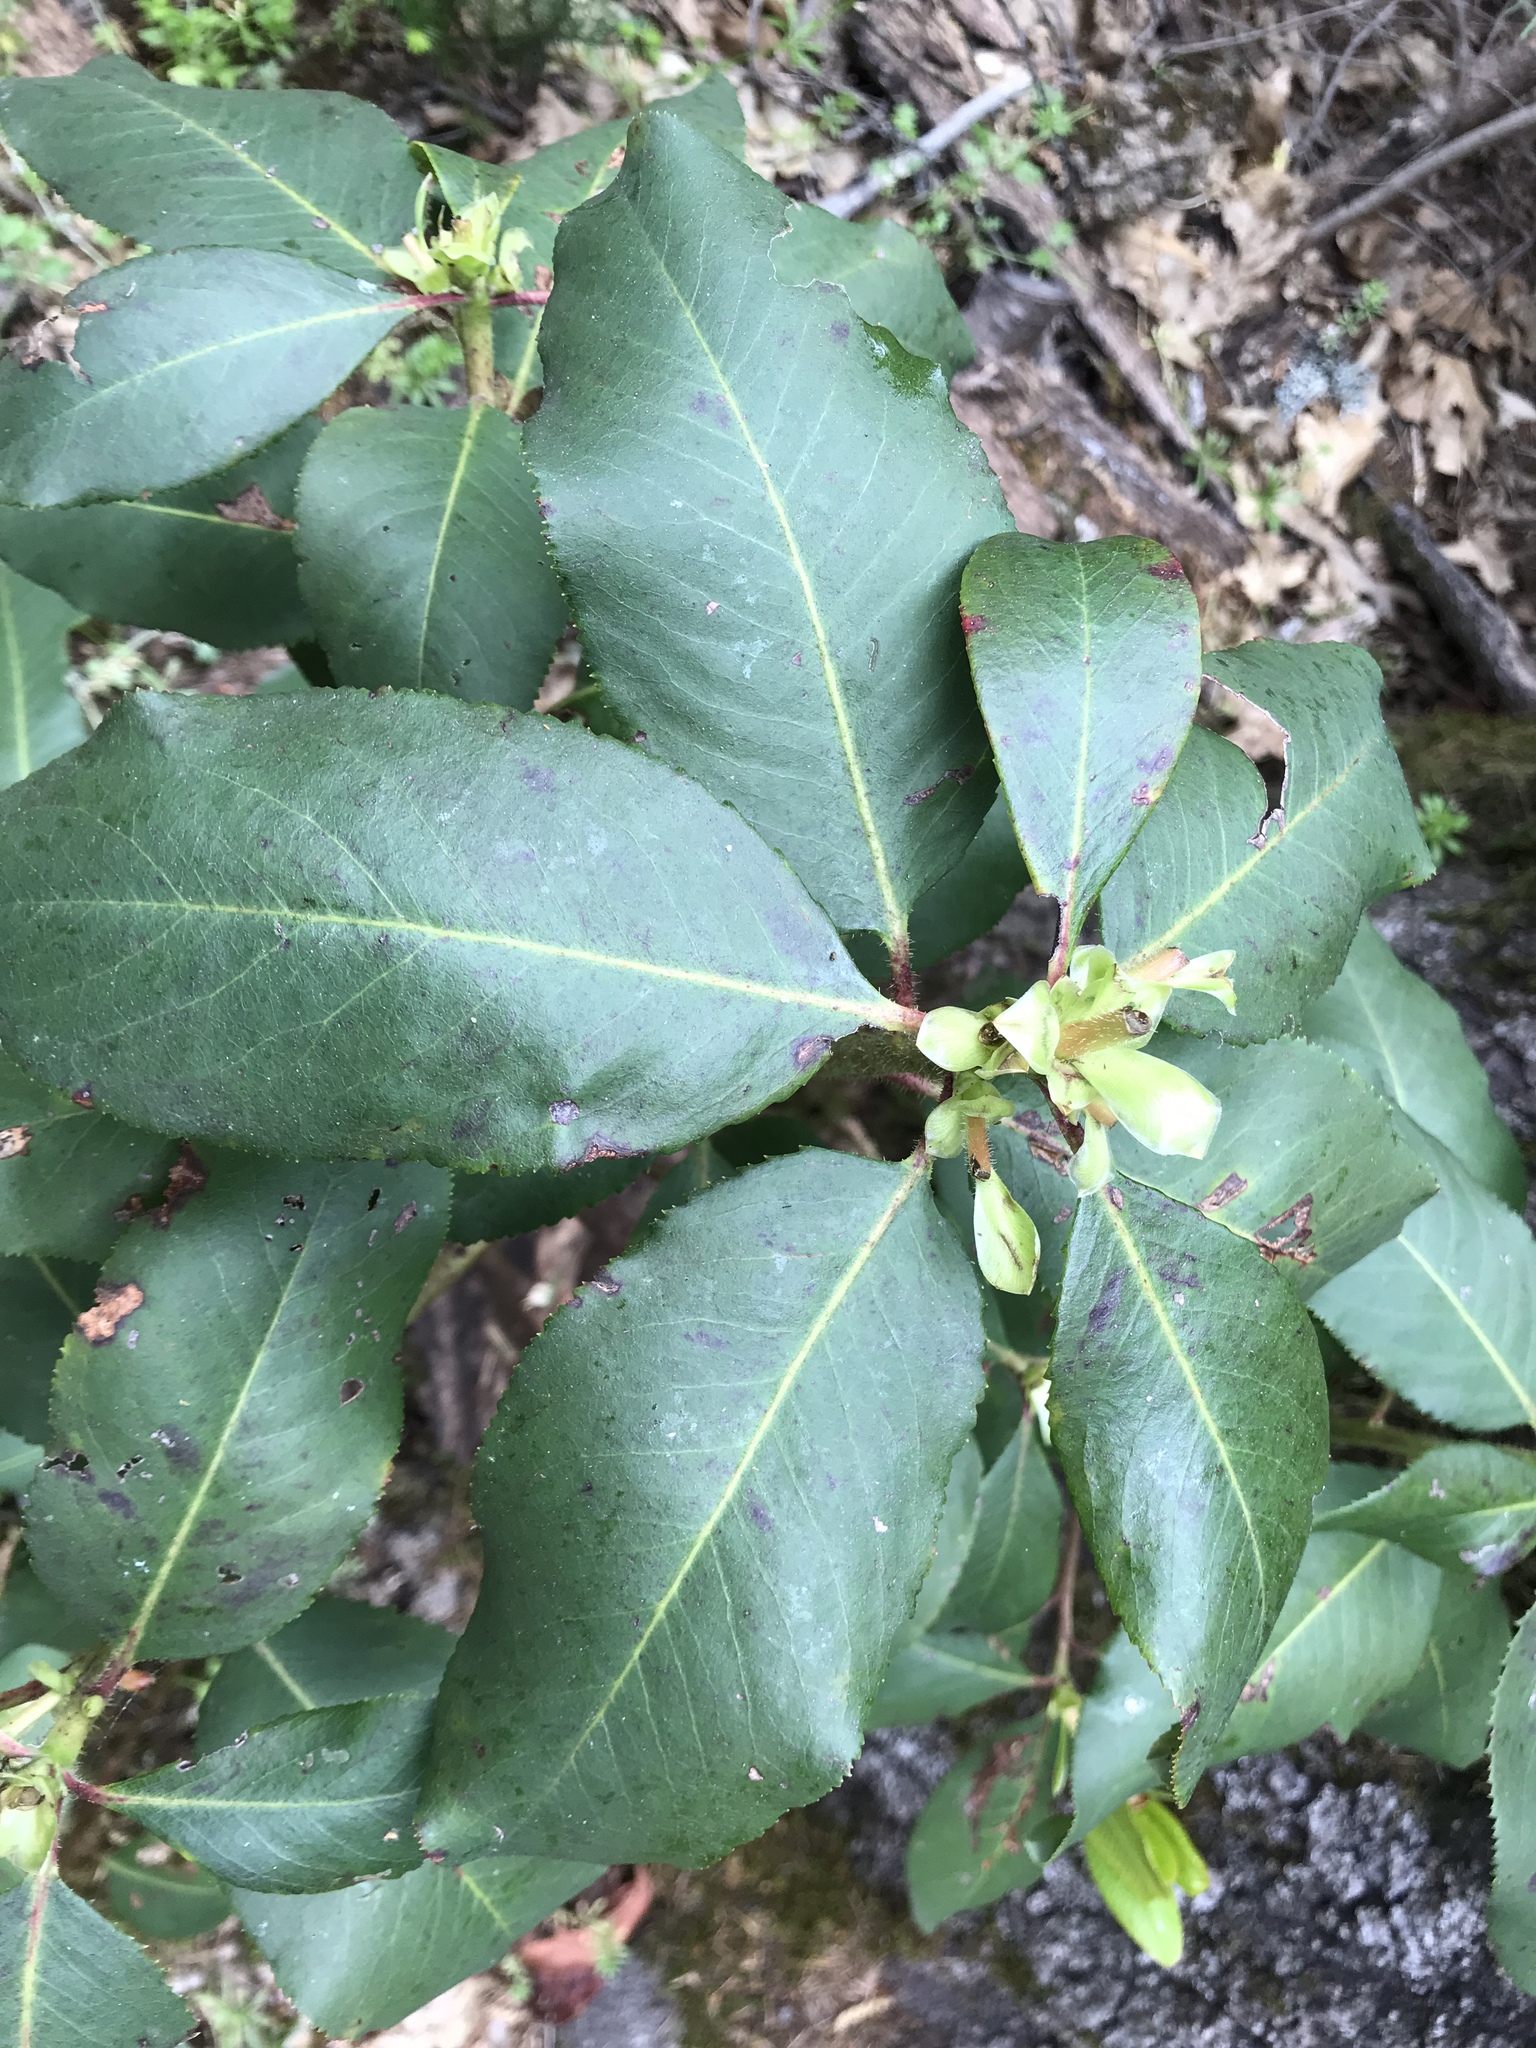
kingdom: Plantae
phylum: Tracheophyta
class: Magnoliopsida
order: Ericales
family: Ericaceae
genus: Arbutus
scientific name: Arbutus menziesii
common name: Pacific madrone
